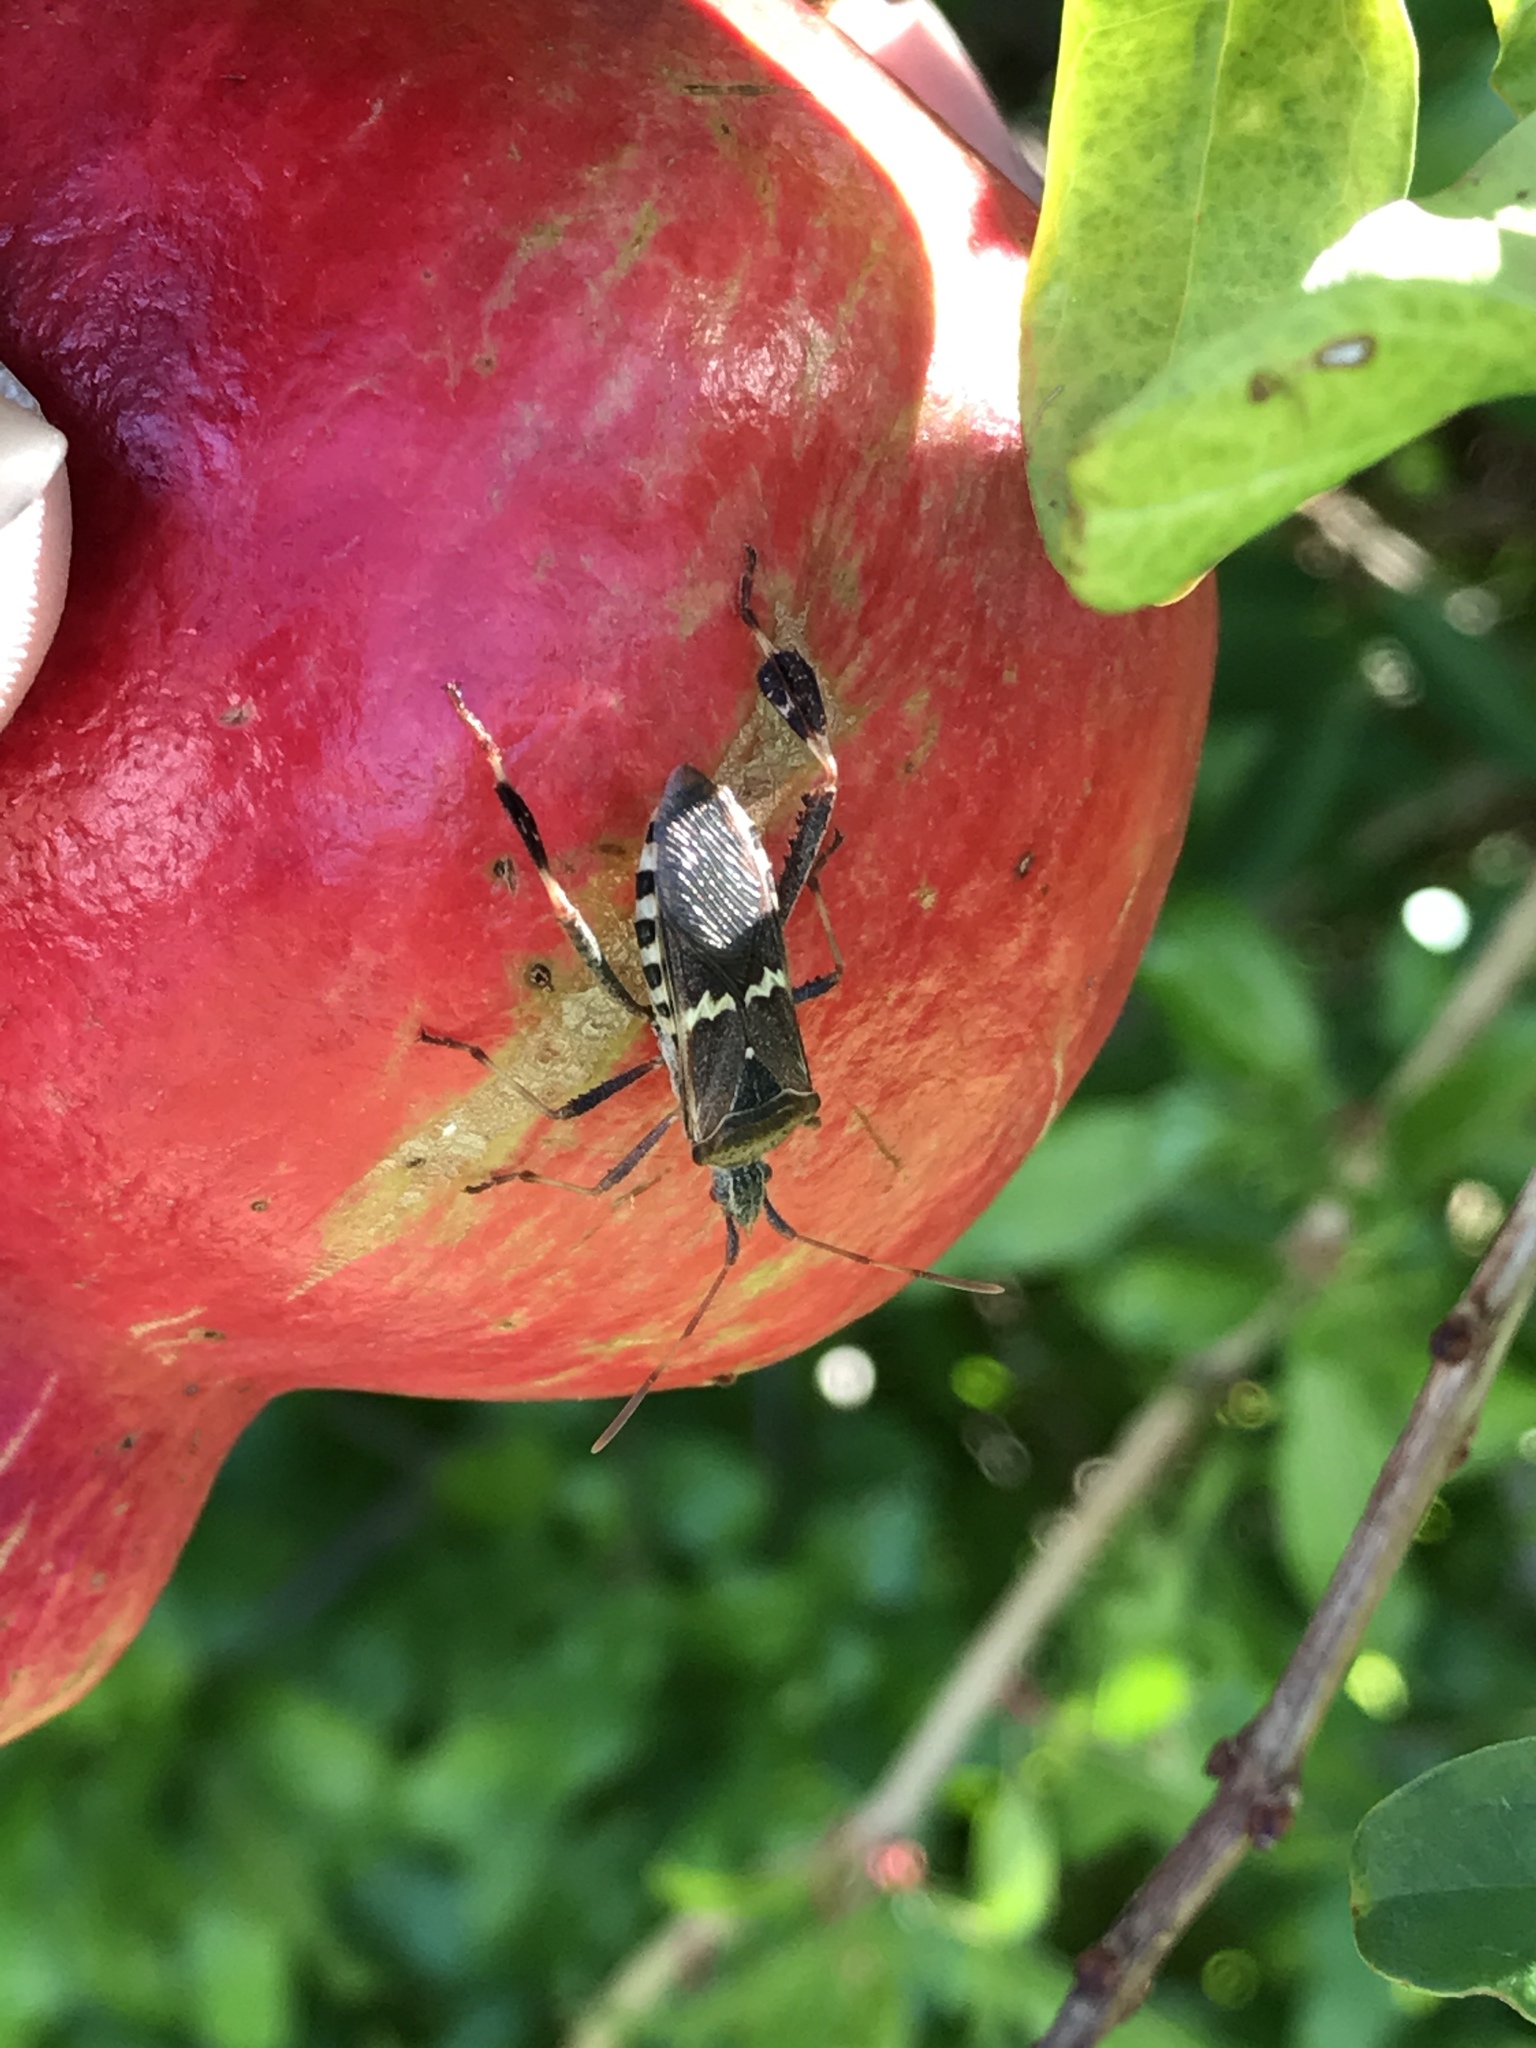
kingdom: Animalia
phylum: Arthropoda
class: Insecta
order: Hemiptera
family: Coreidae
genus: Leptoglossus
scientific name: Leptoglossus clypealis
